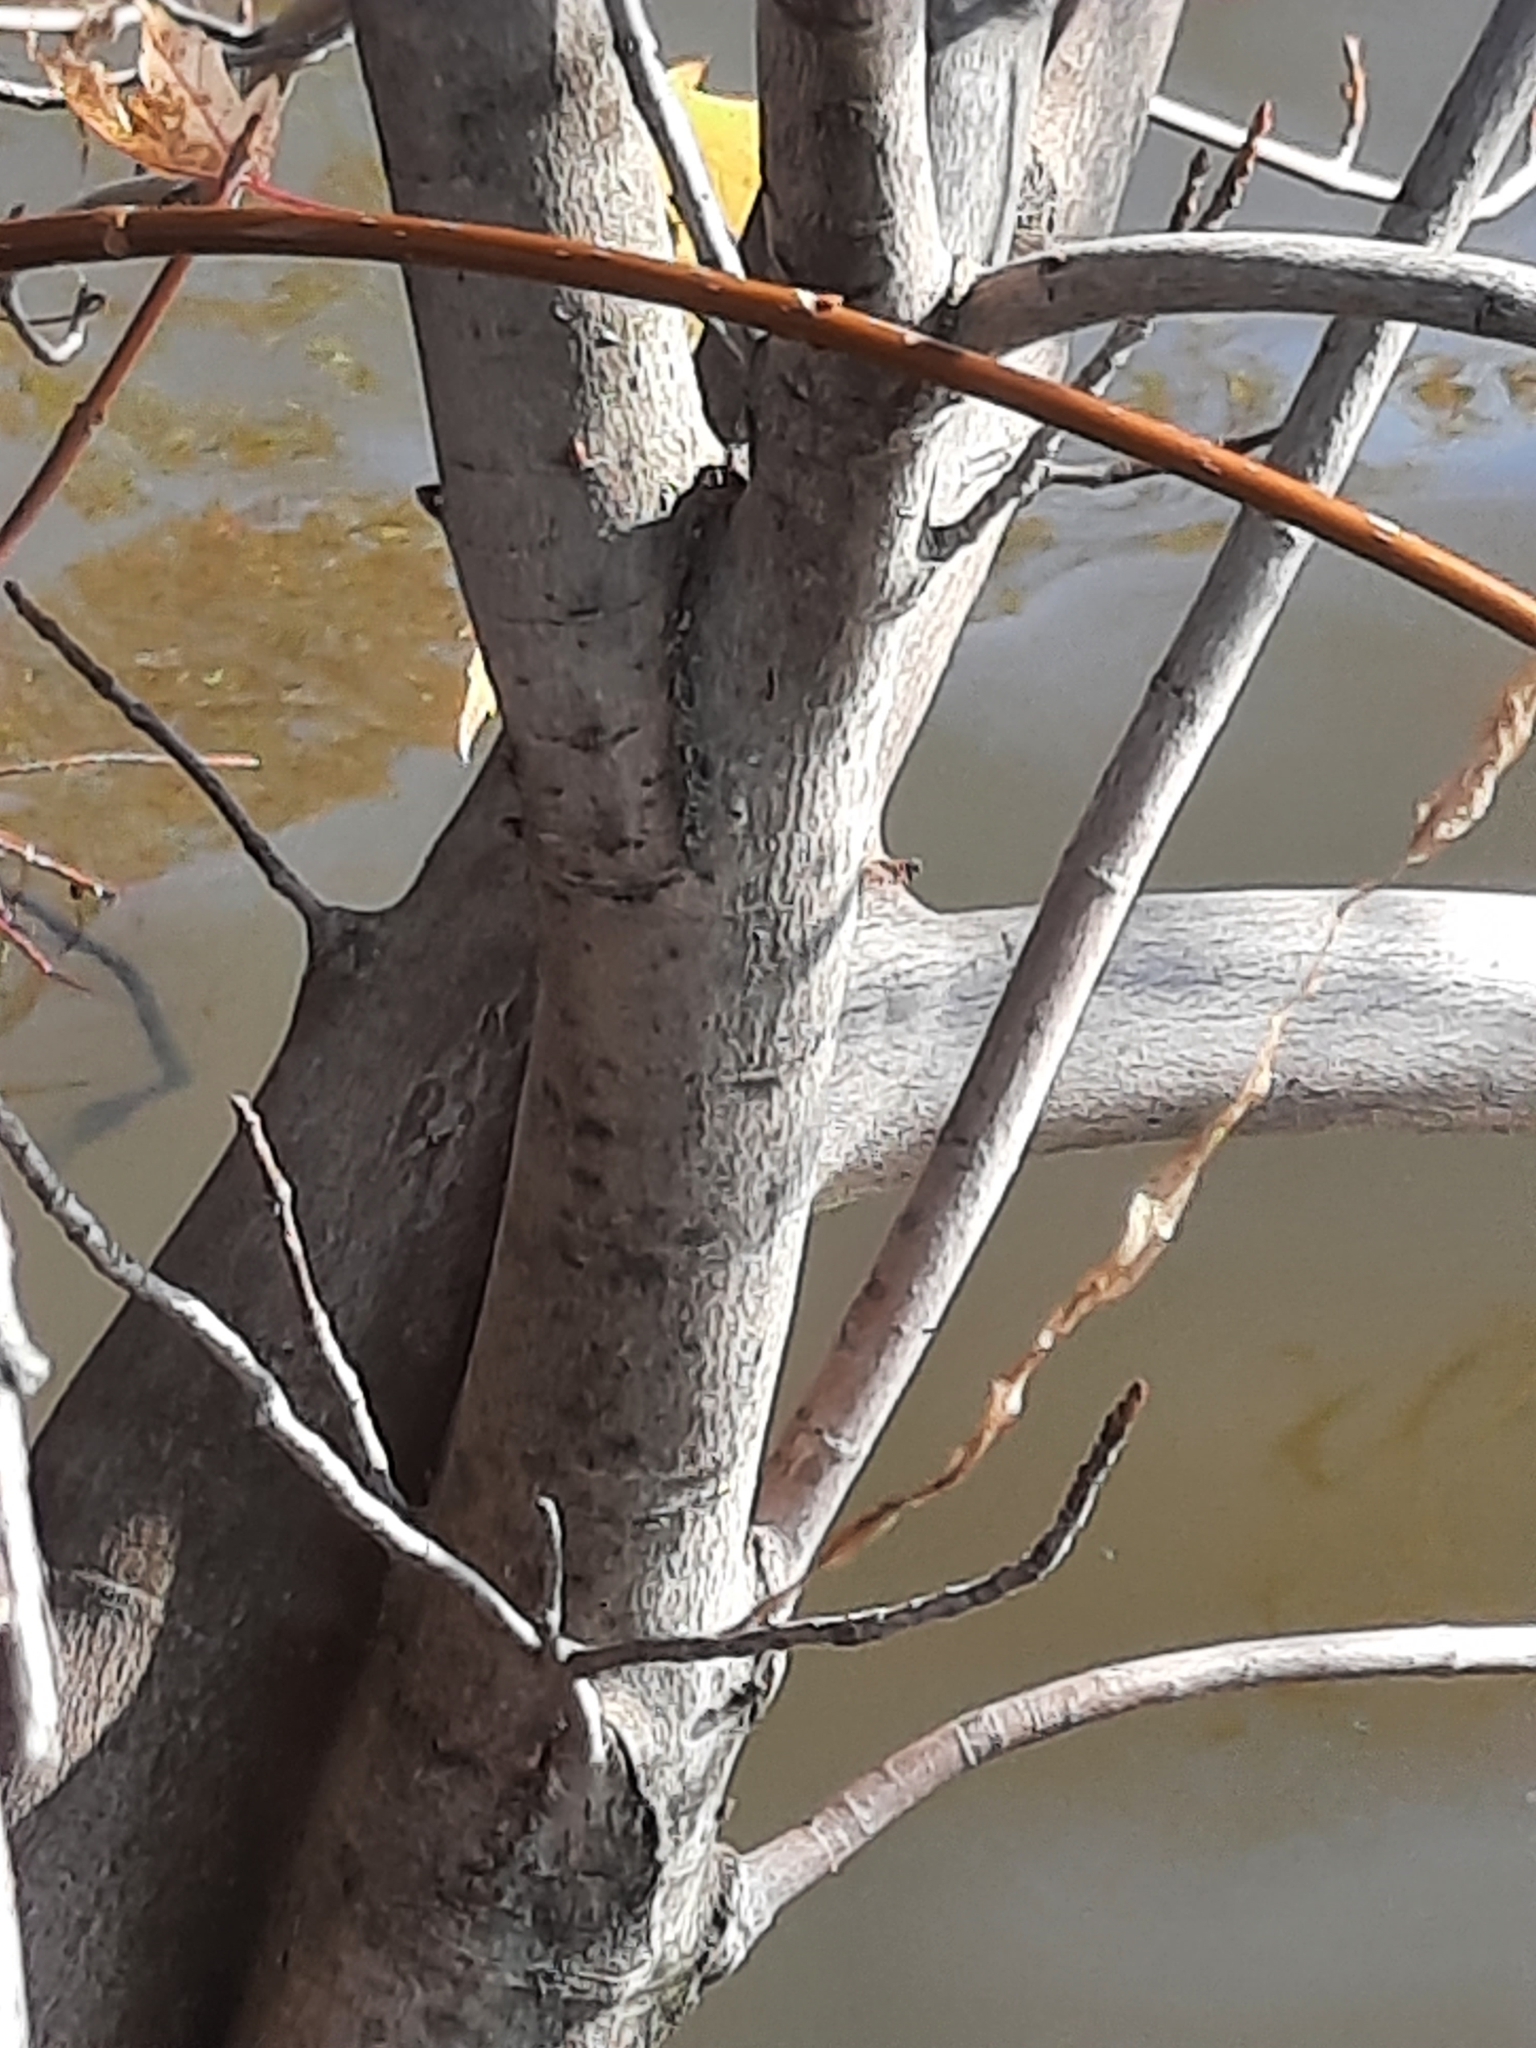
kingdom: Plantae
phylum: Tracheophyta
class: Magnoliopsida
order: Sapindales
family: Sapindaceae
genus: Acer
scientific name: Acer saccharinum
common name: Silver maple
